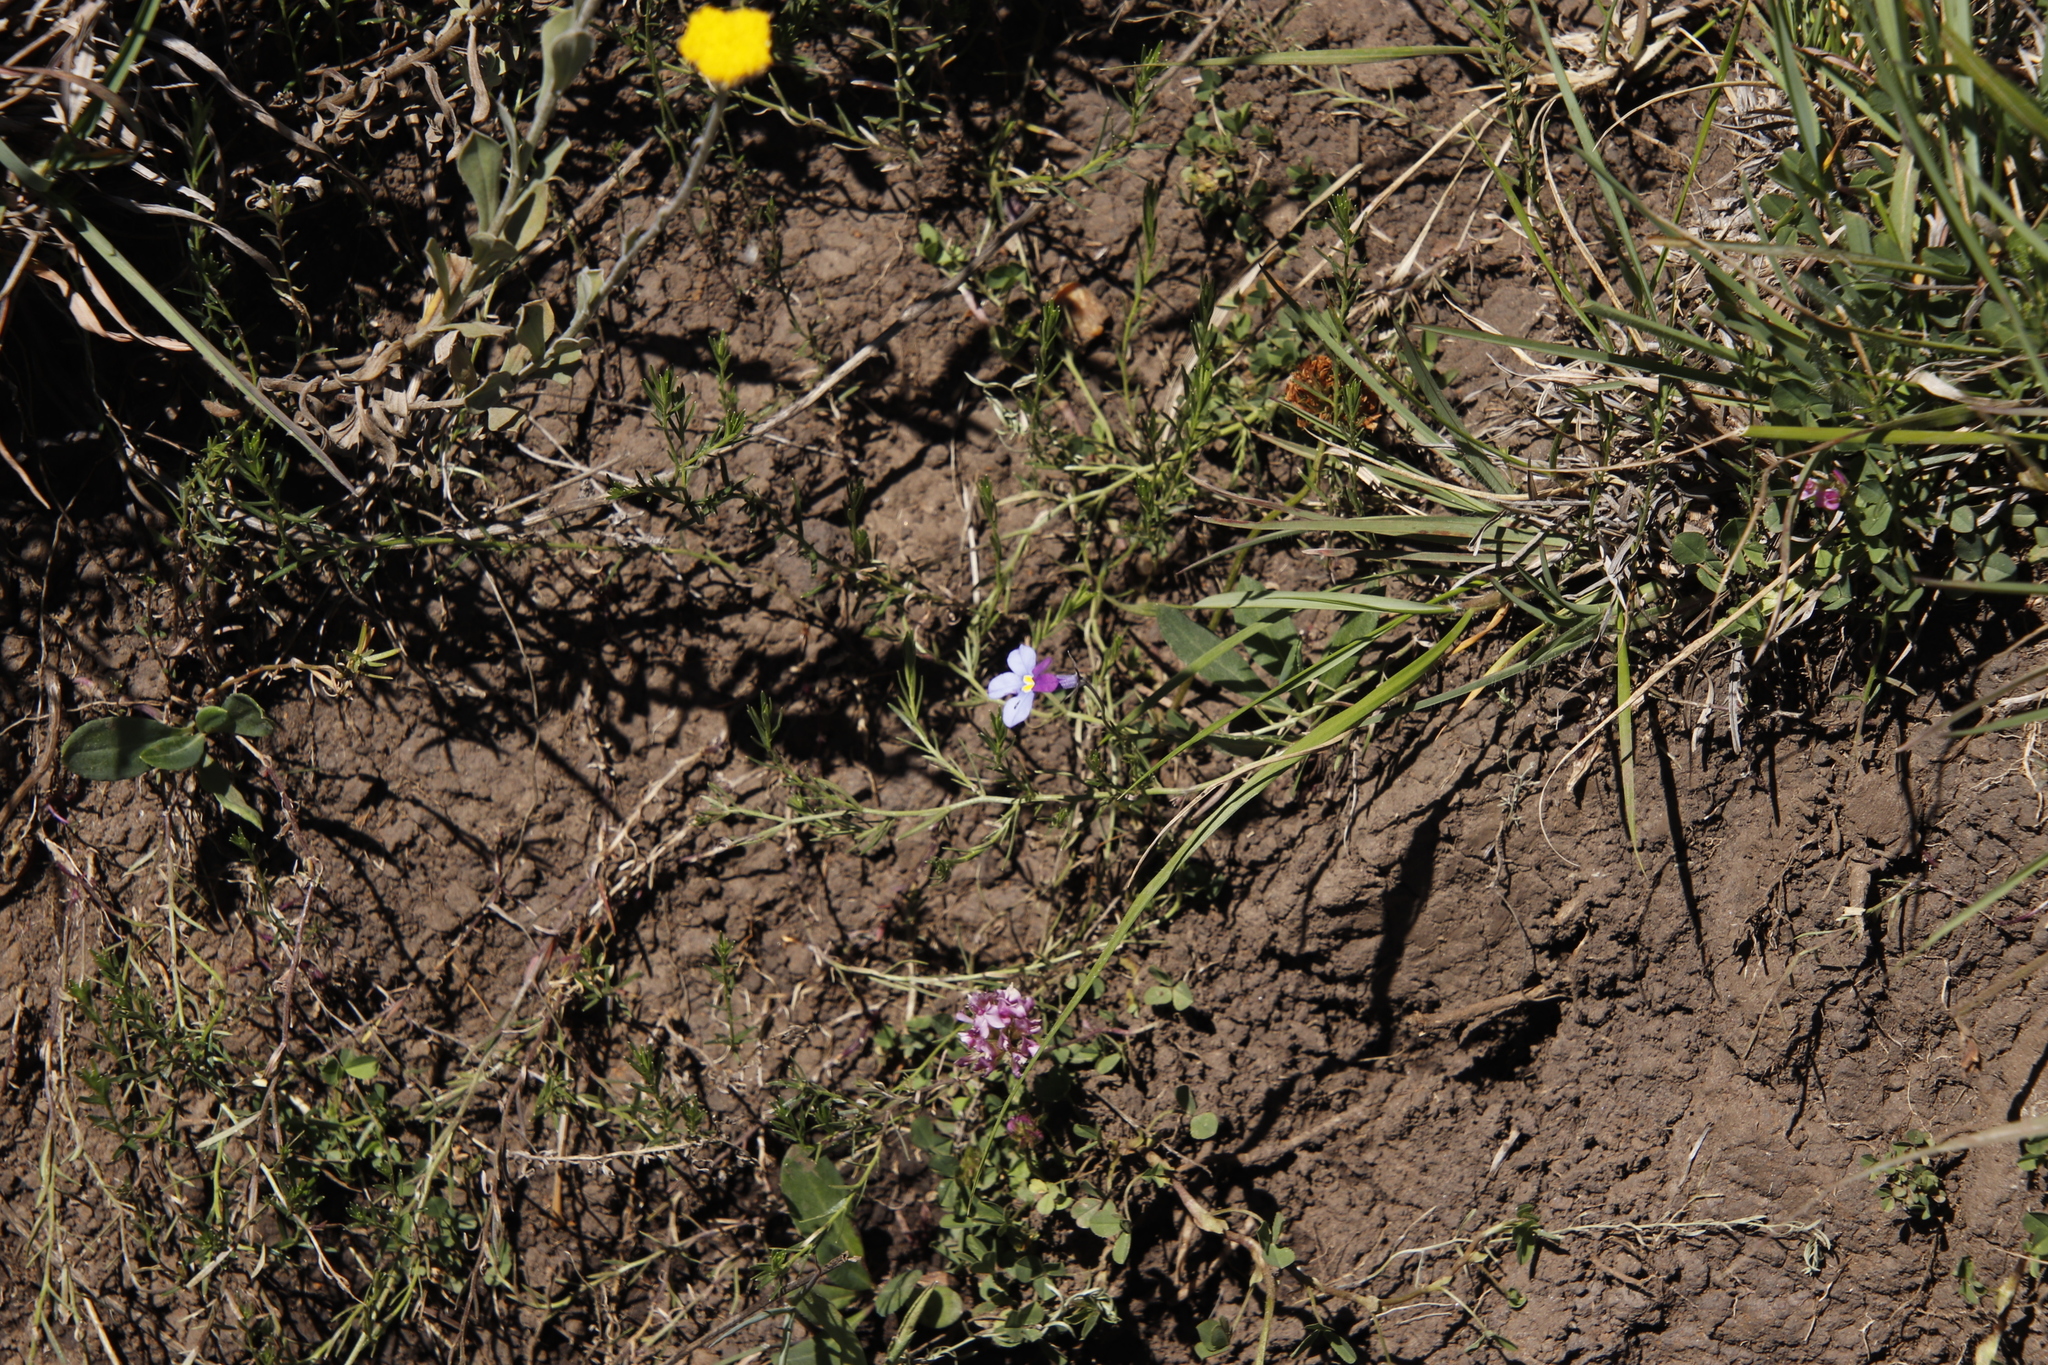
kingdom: Plantae
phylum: Tracheophyta
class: Magnoliopsida
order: Asterales
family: Campanulaceae
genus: Monopsis
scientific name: Monopsis decipiens
